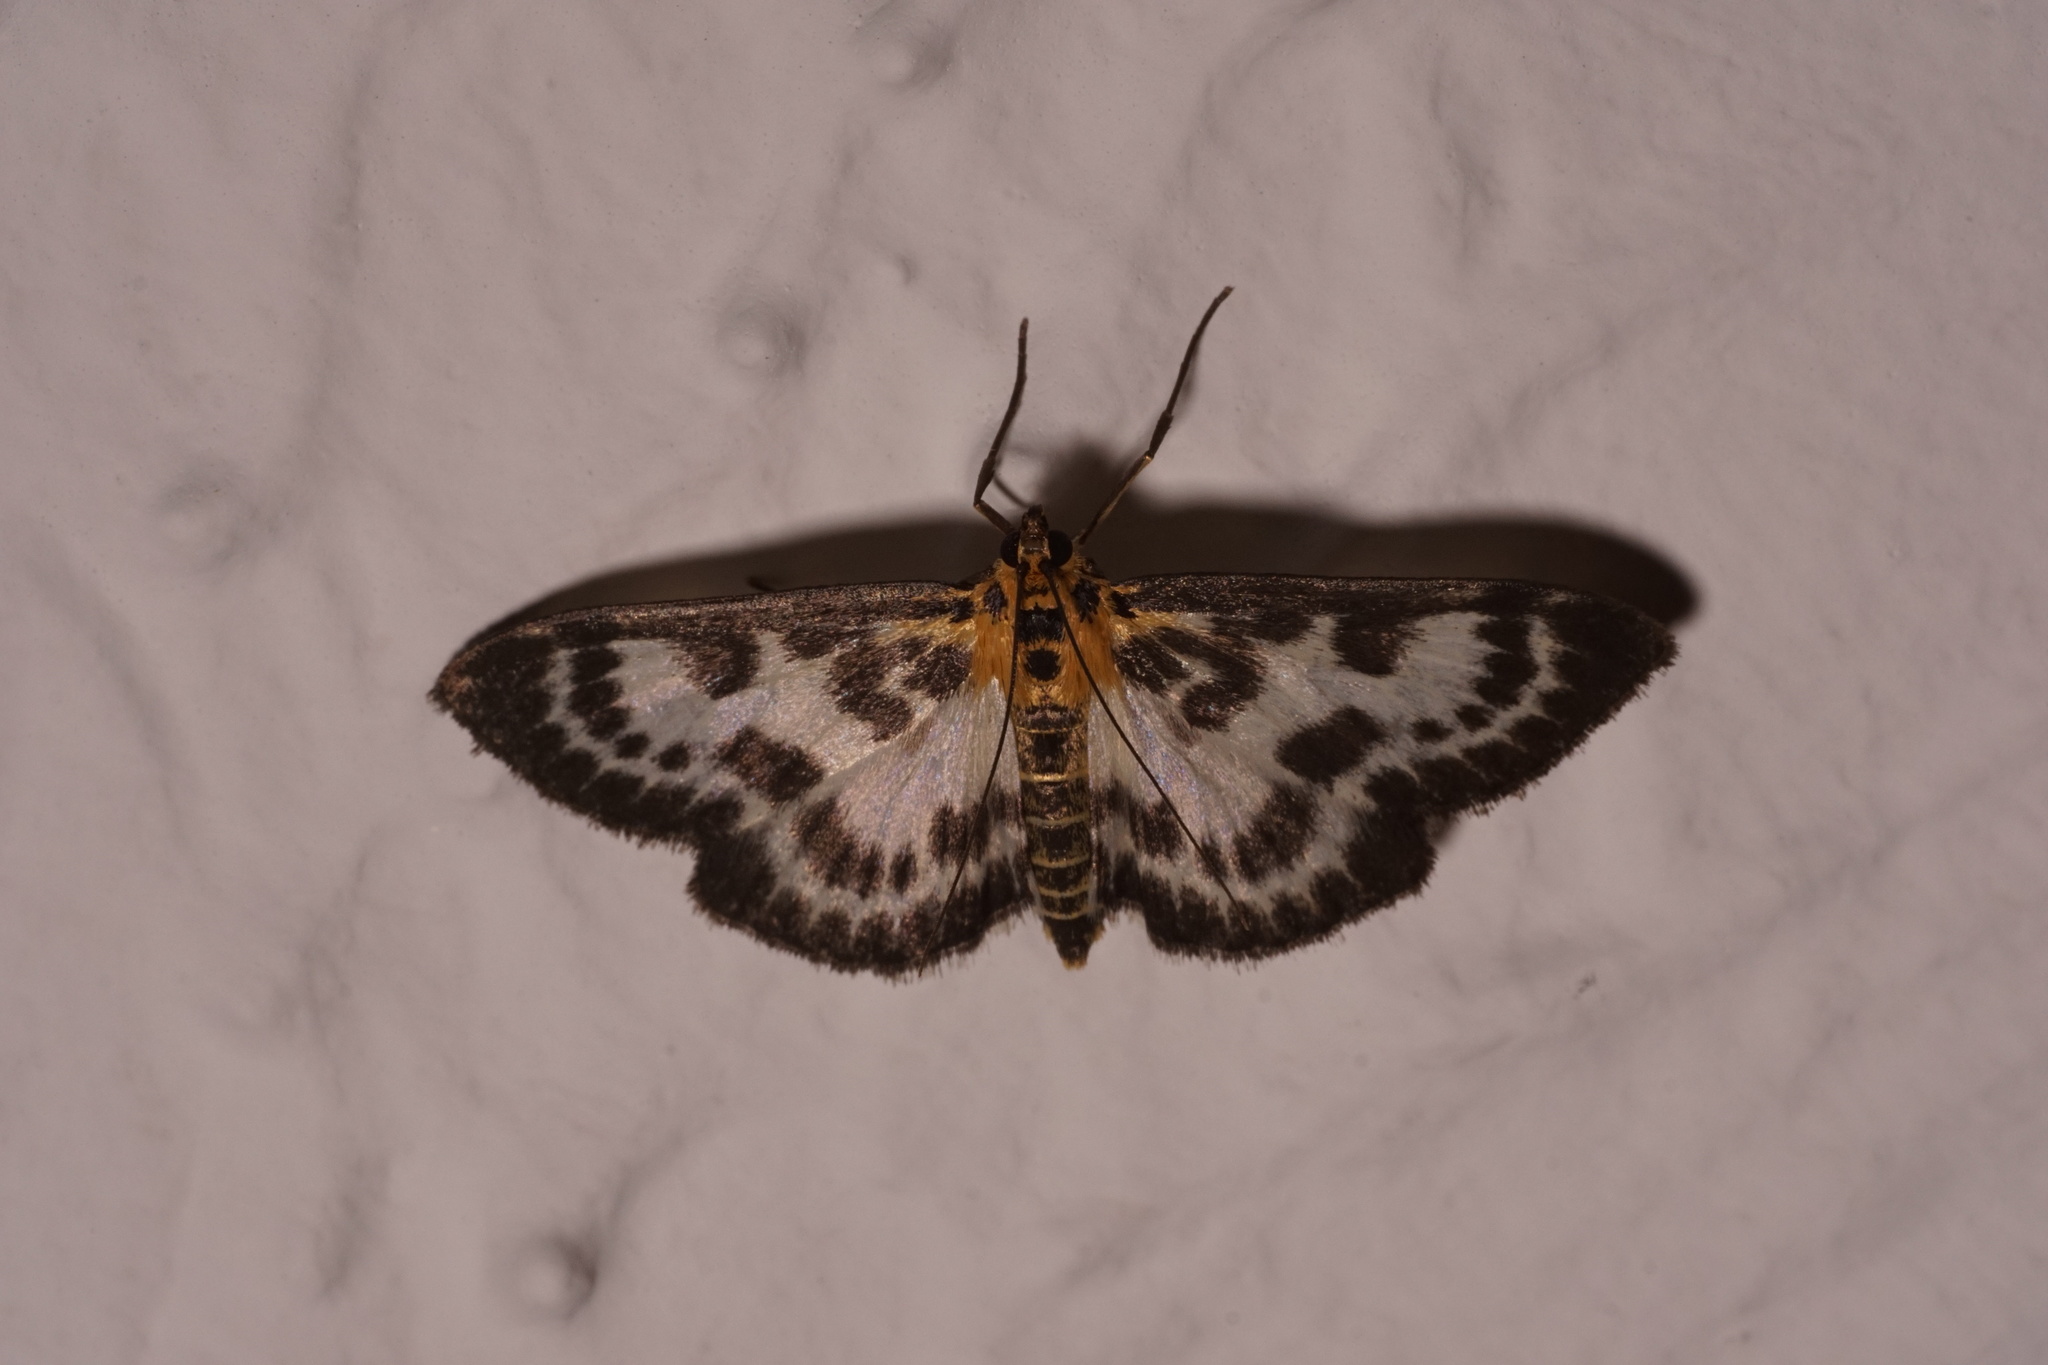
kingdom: Animalia
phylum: Arthropoda
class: Insecta
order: Lepidoptera
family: Crambidae
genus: Anania
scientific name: Anania hortulata
